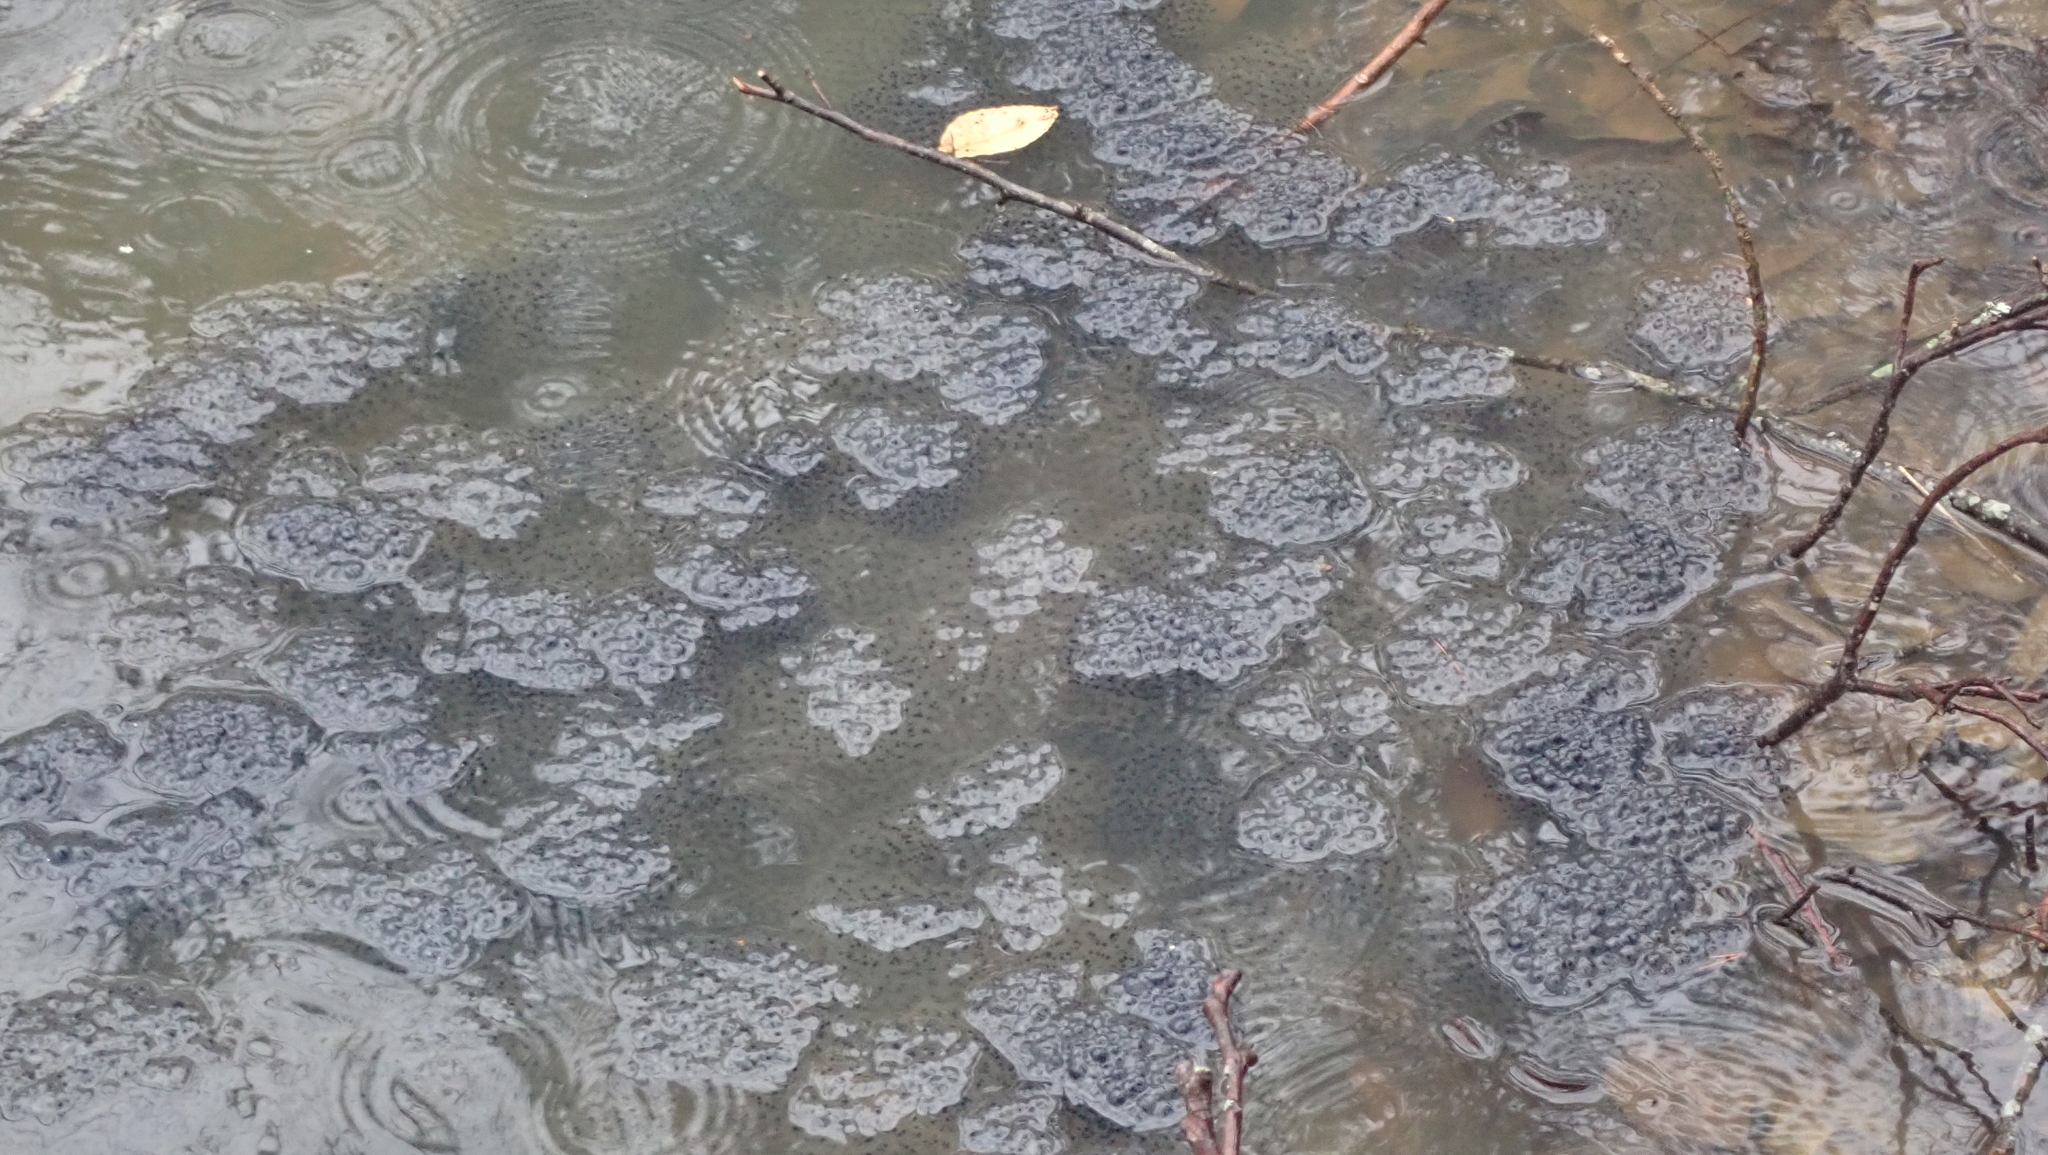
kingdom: Animalia
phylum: Chordata
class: Amphibia
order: Anura
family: Ranidae
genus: Lithobates
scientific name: Lithobates sylvaticus
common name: Wood frog
